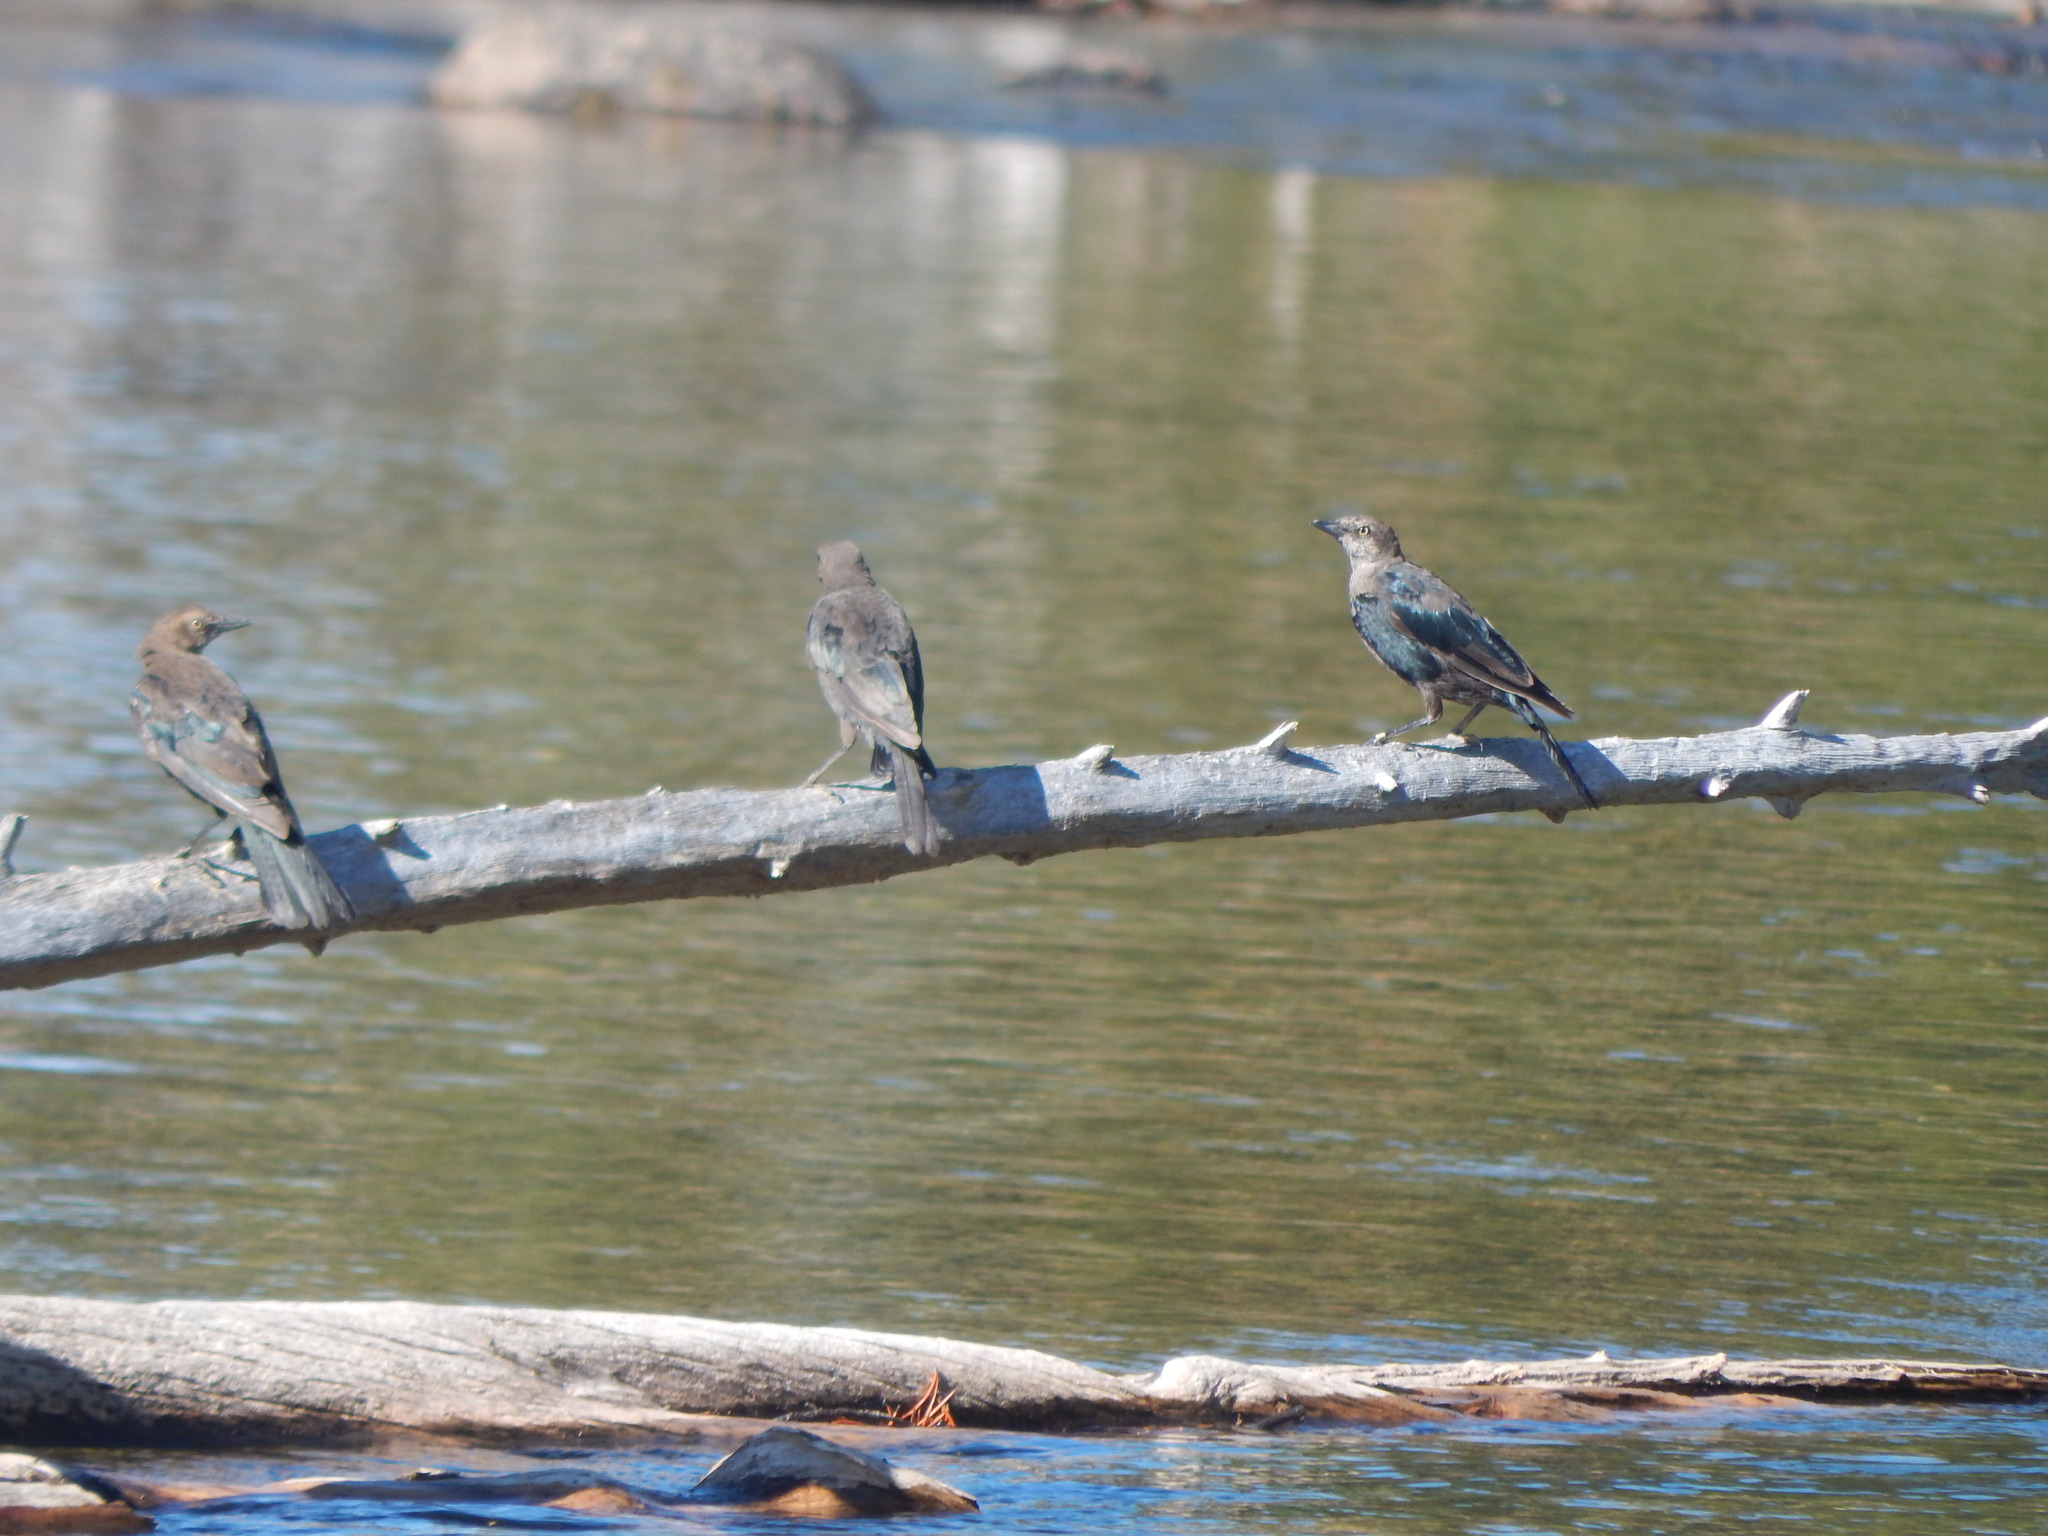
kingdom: Animalia
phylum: Chordata
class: Aves
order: Passeriformes
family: Icteridae
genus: Euphagus
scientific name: Euphagus cyanocephalus
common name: Brewer's blackbird
